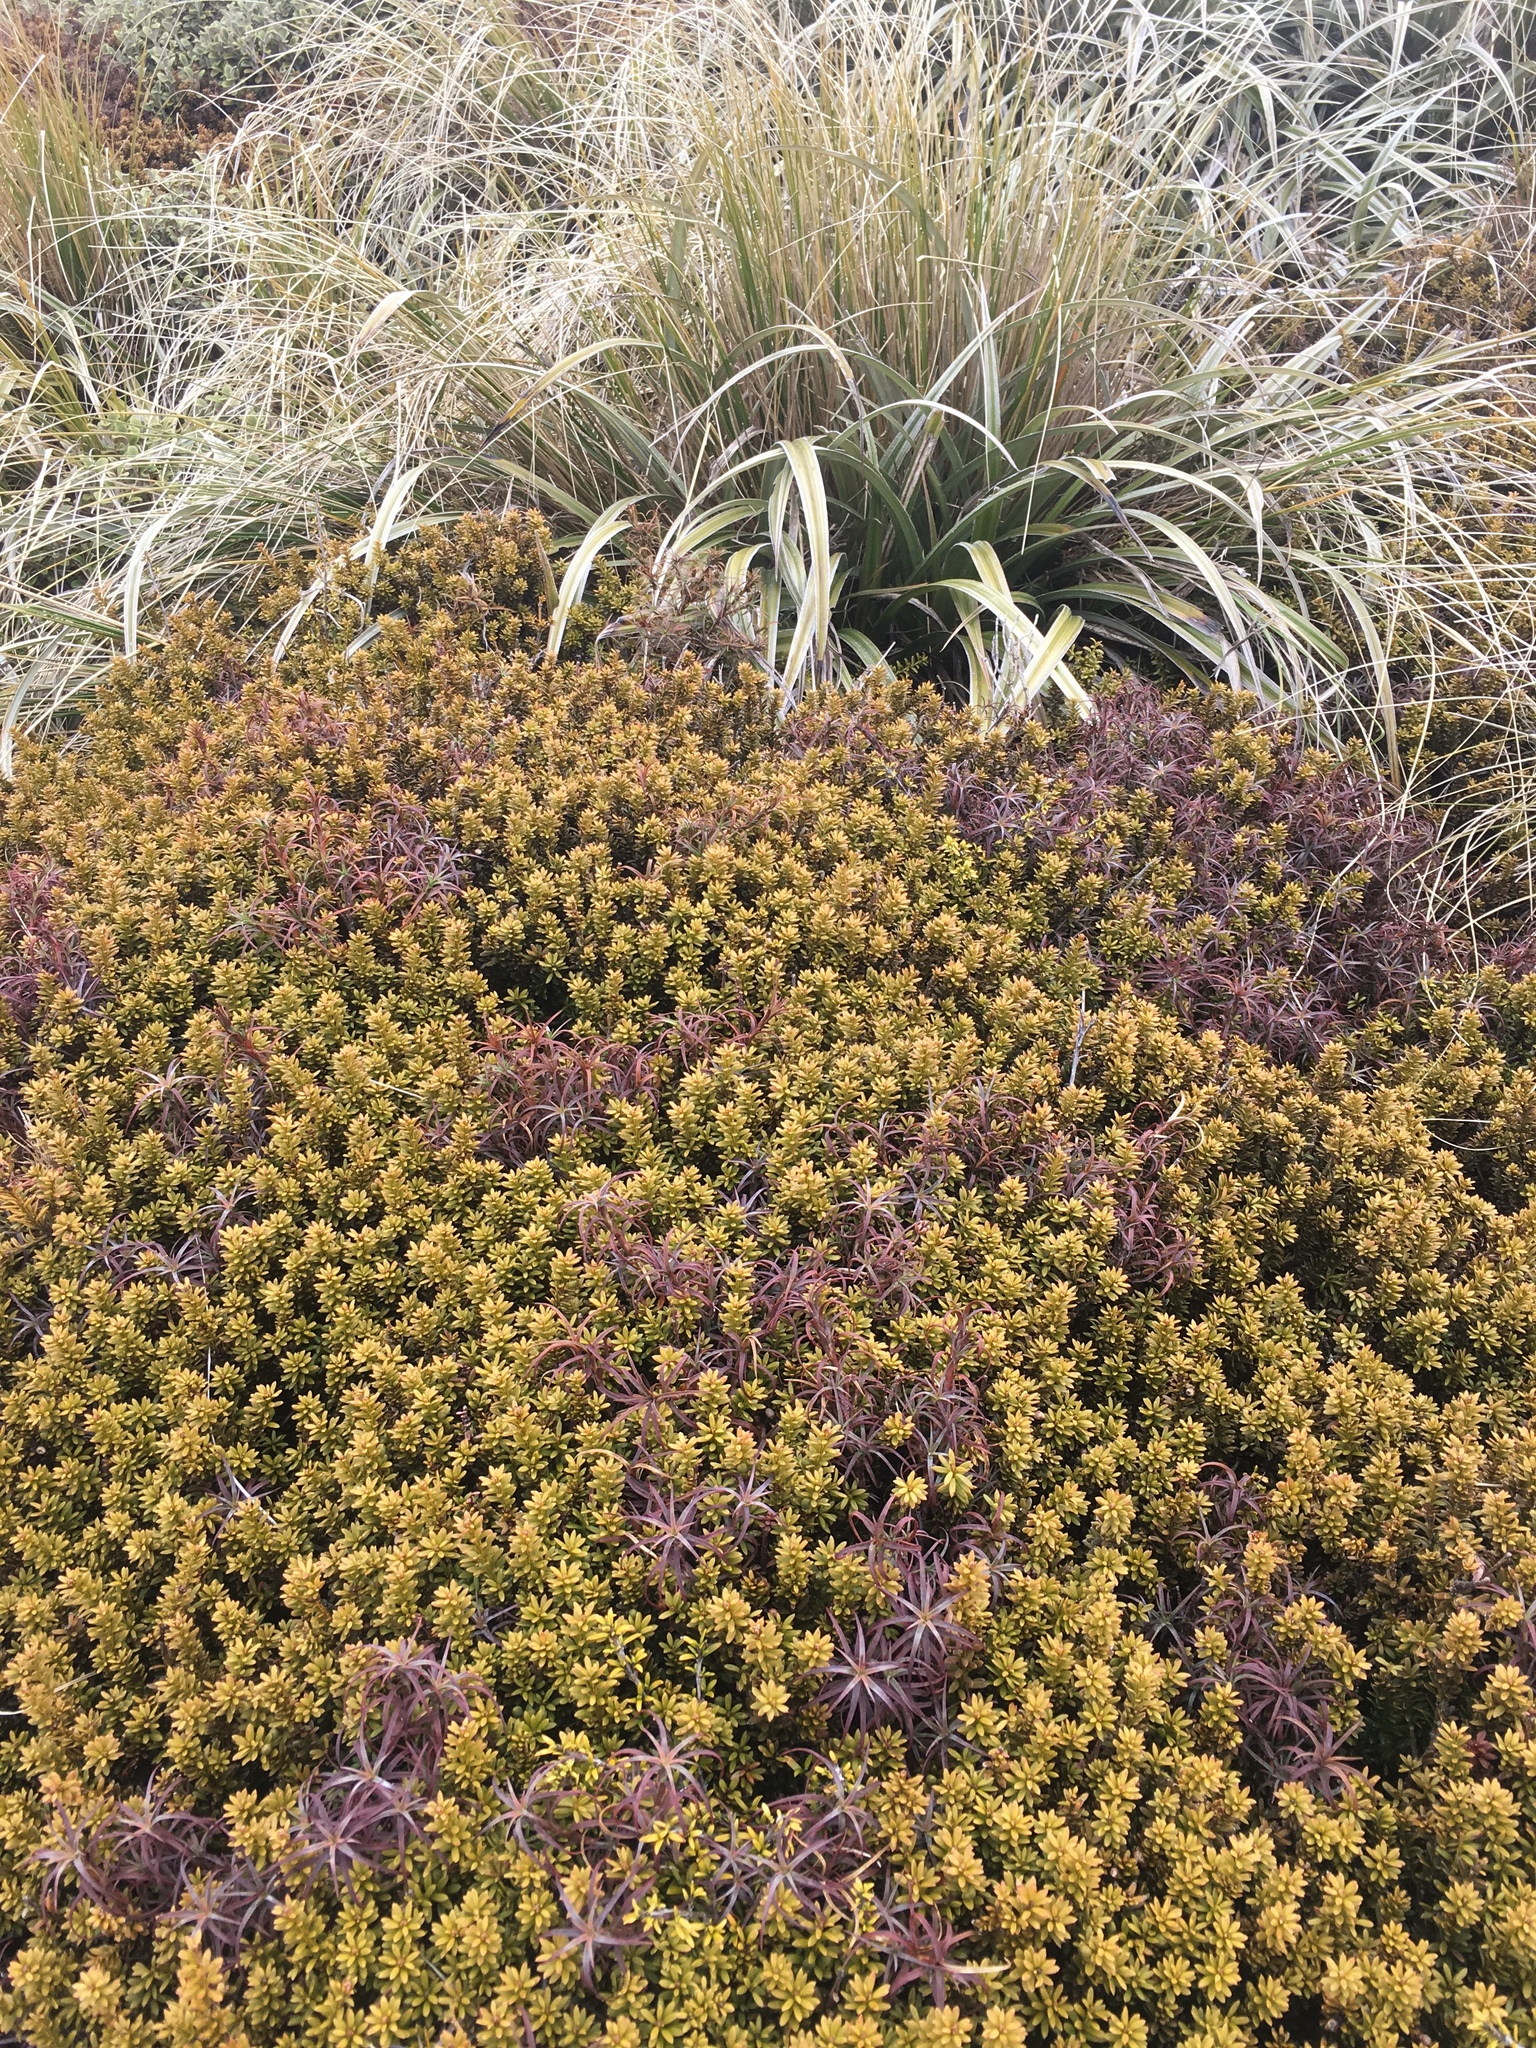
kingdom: Plantae
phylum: Tracheophyta
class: Pinopsida
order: Pinales
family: Podocarpaceae
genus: Podocarpus
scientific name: Podocarpus nivalis
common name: Alpine totara
